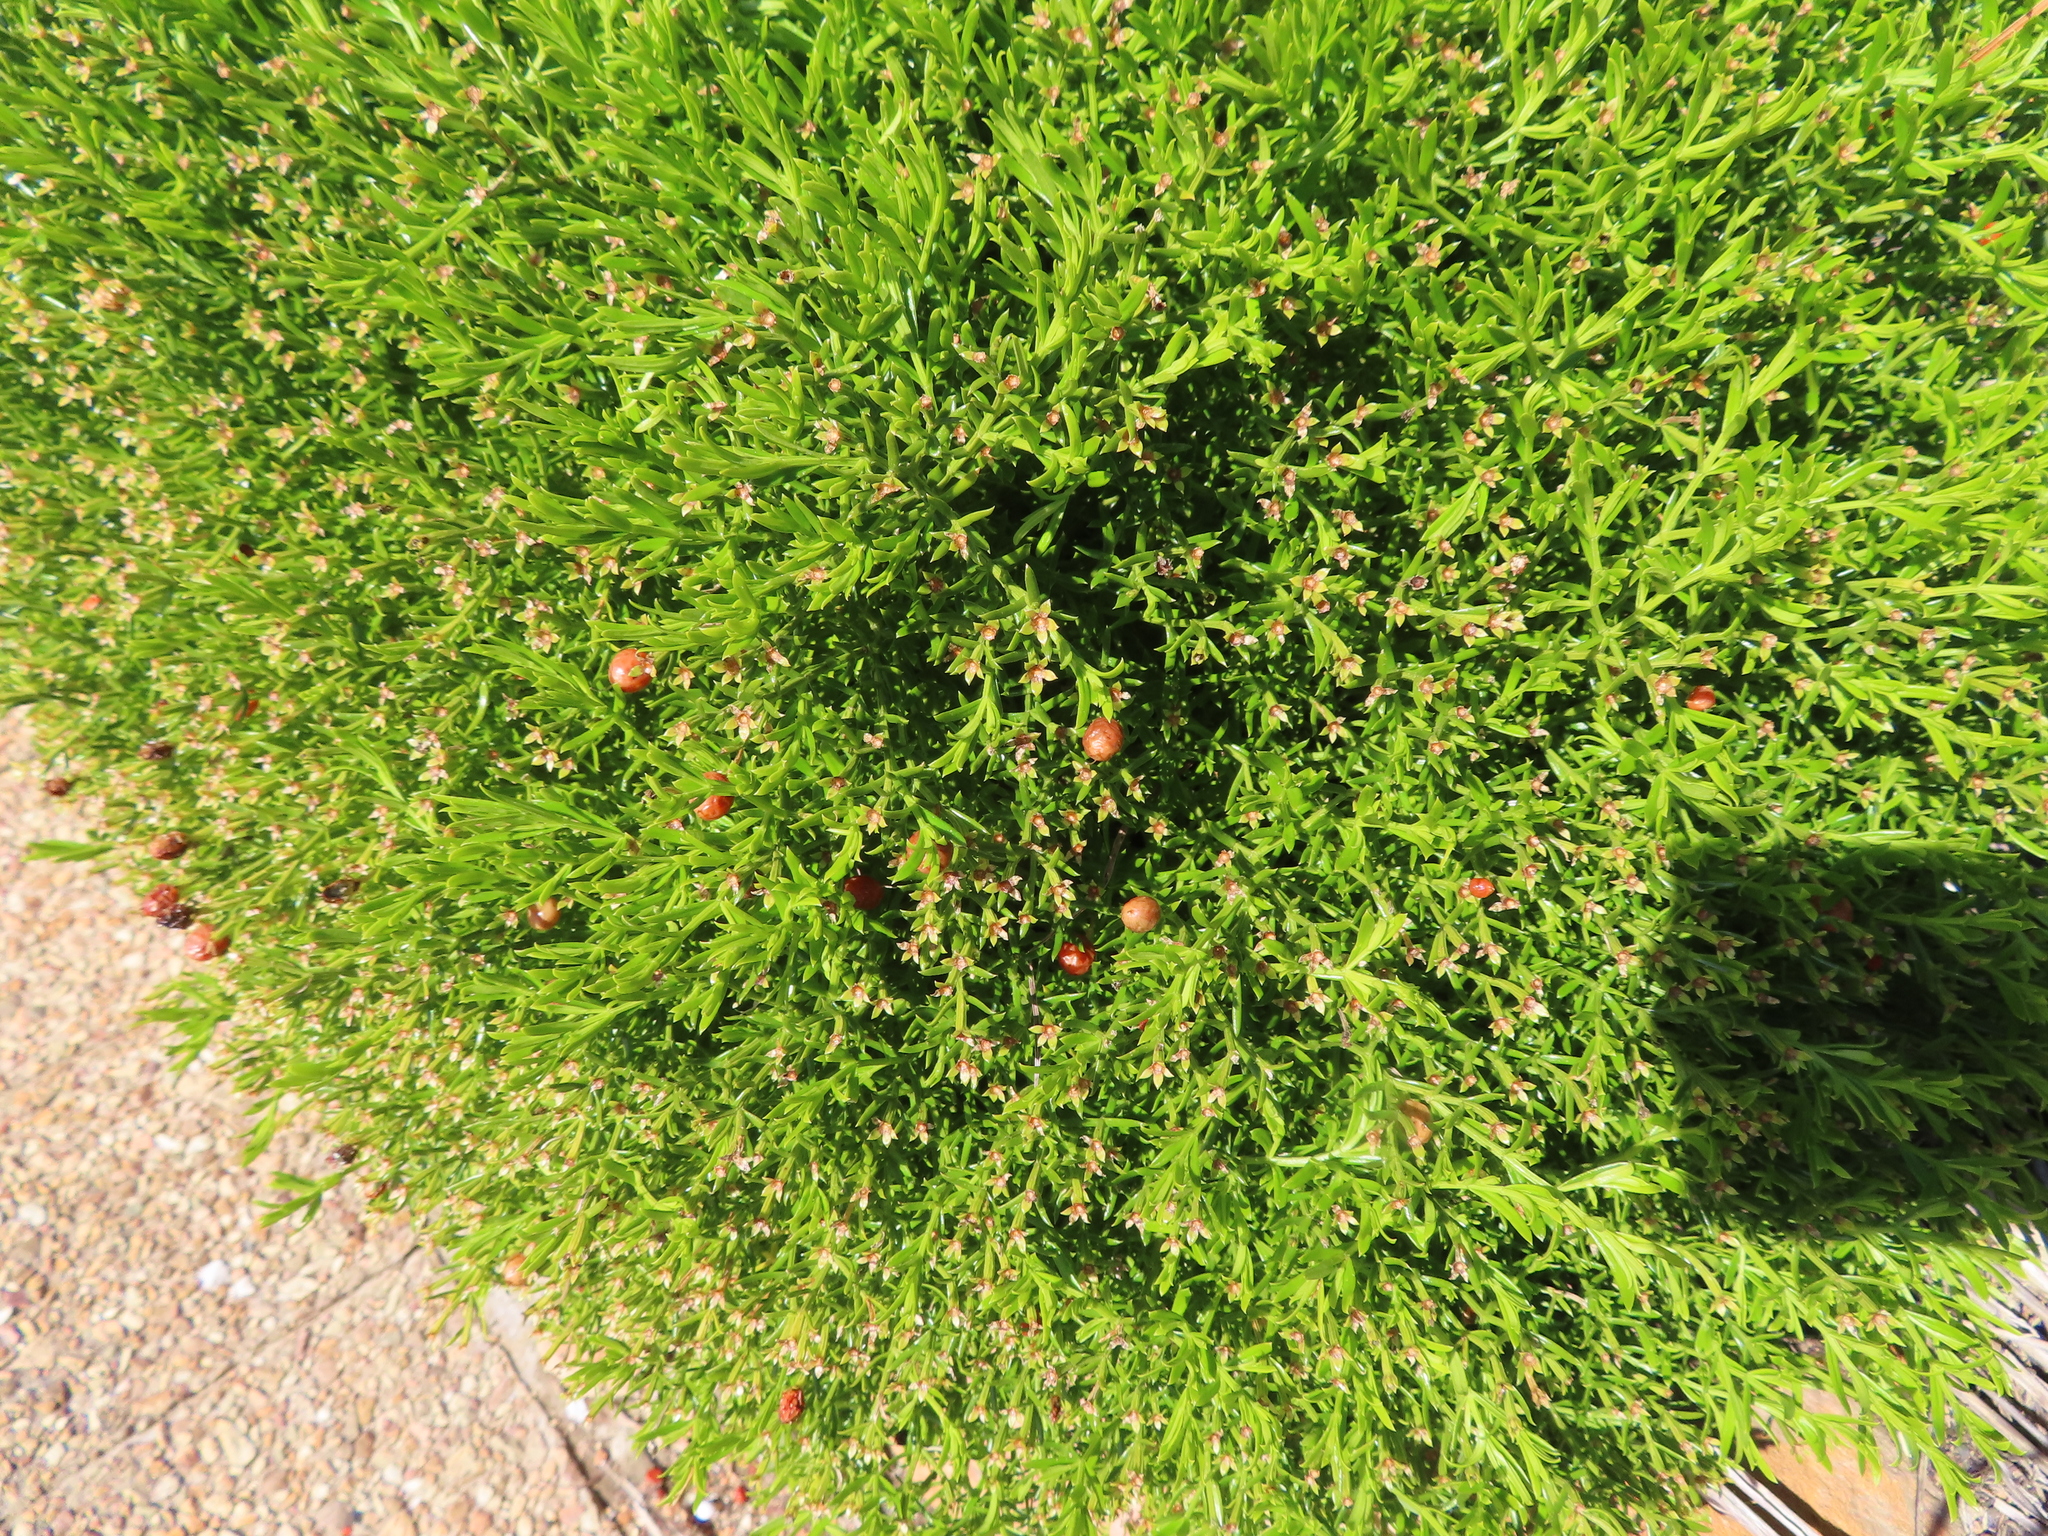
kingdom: Plantae
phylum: Tracheophyta
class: Magnoliopsida
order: Gentianales
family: Gentianaceae
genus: Chironia
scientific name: Chironia baccifera
